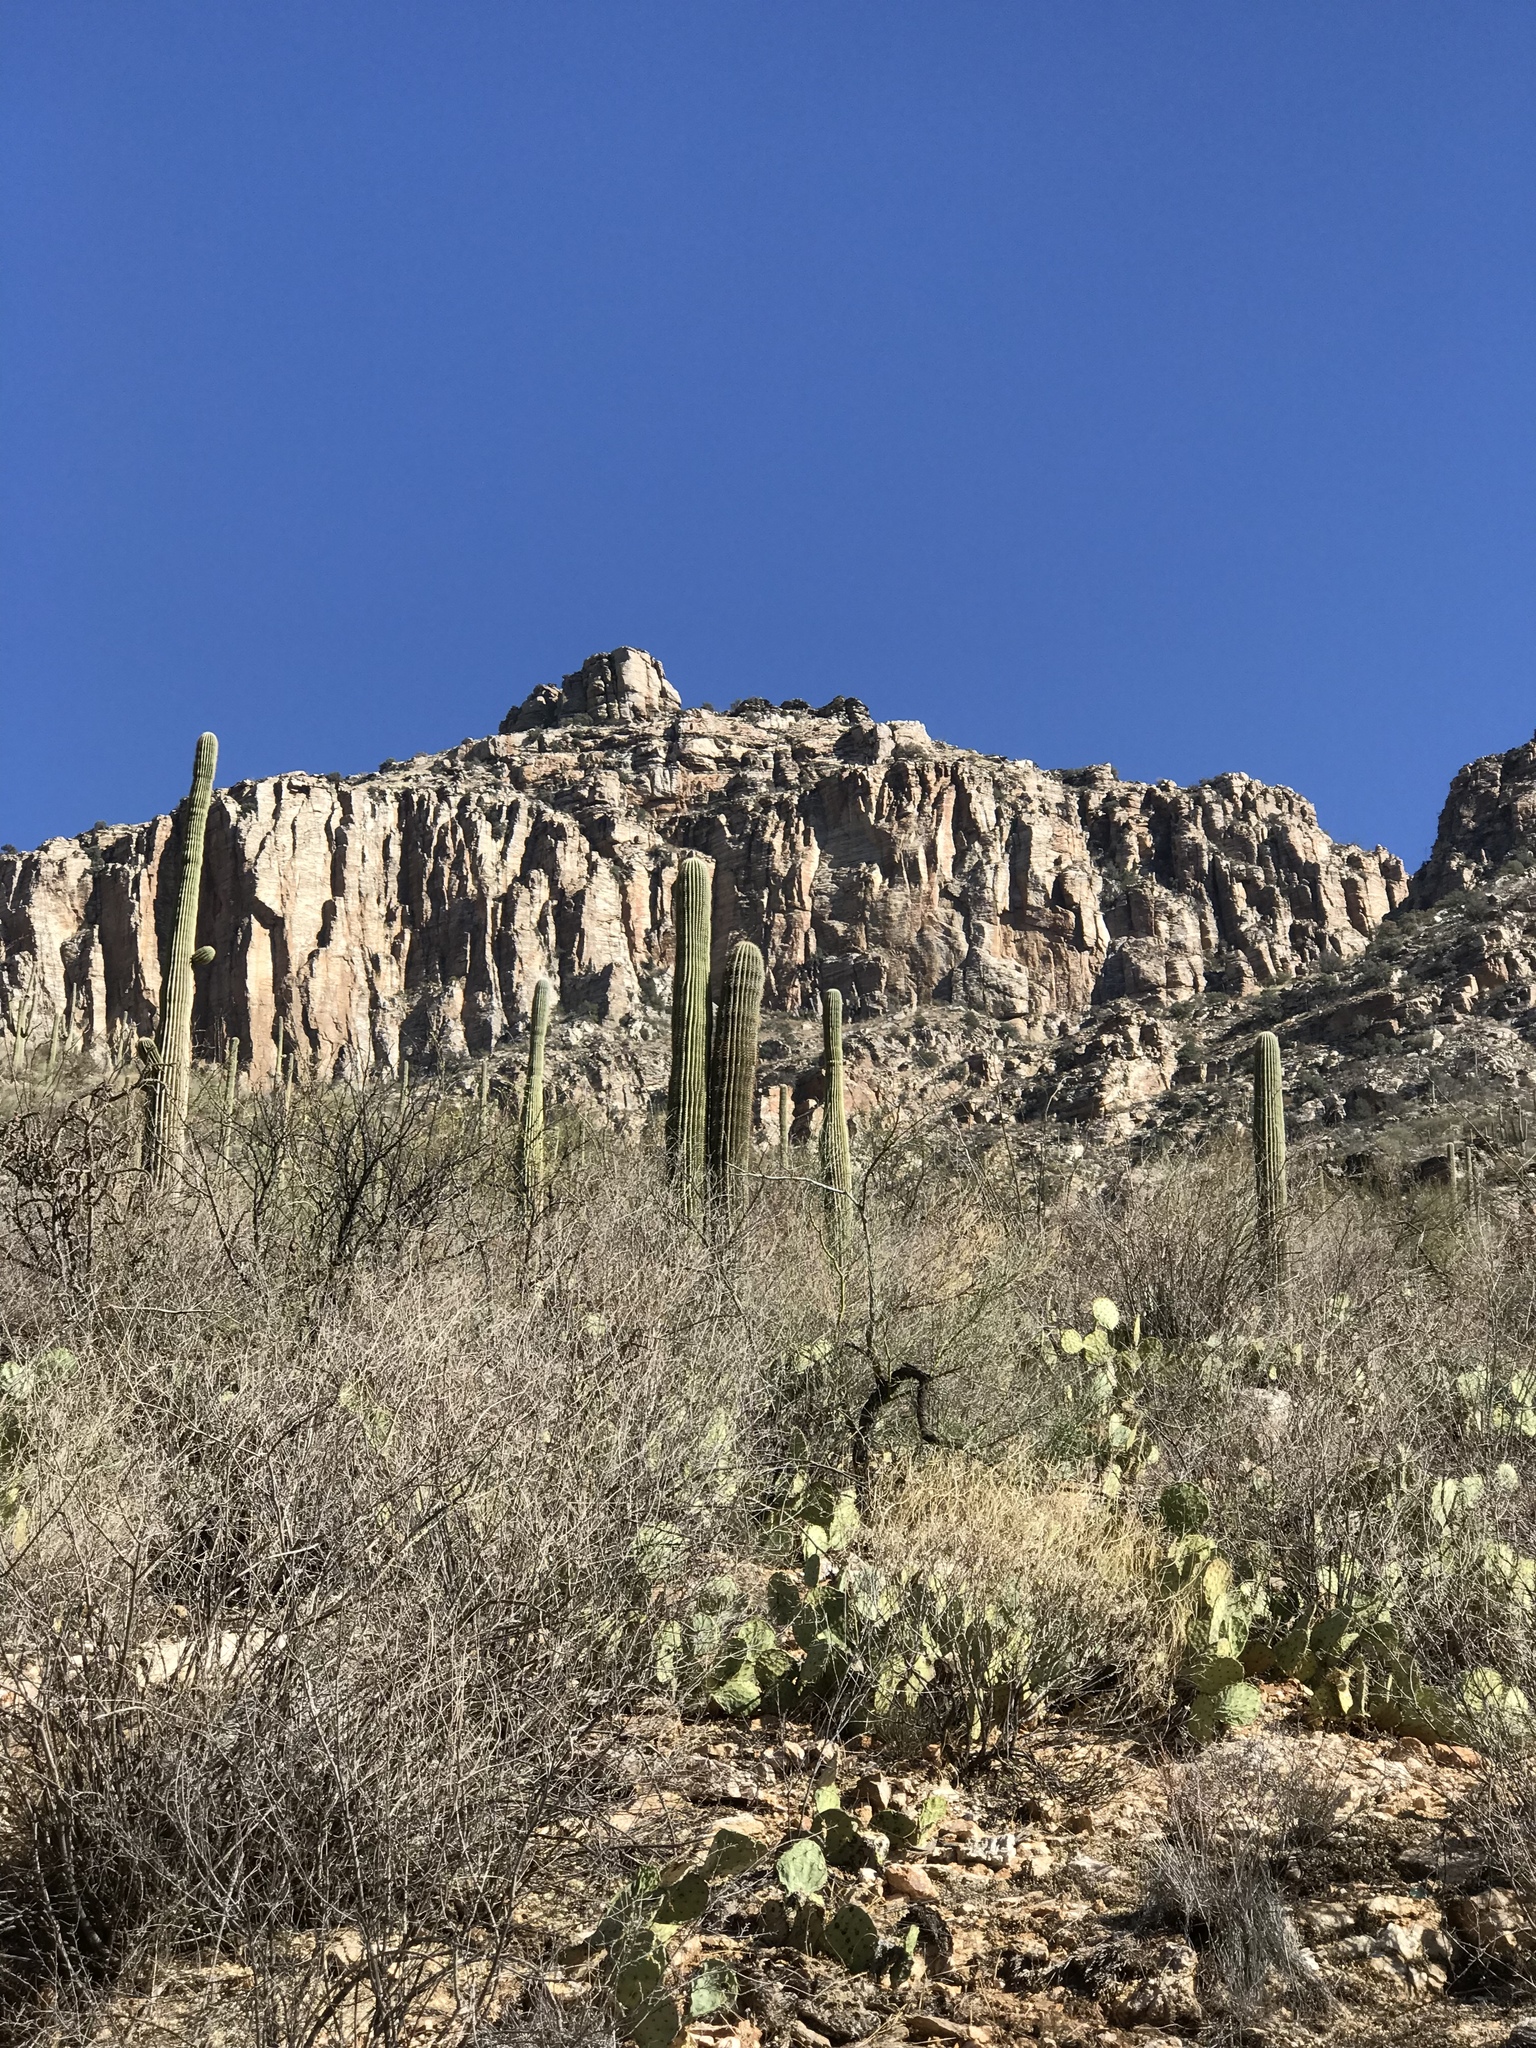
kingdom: Plantae
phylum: Tracheophyta
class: Magnoliopsida
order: Caryophyllales
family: Cactaceae
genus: Carnegiea
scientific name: Carnegiea gigantea
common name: Saguaro
